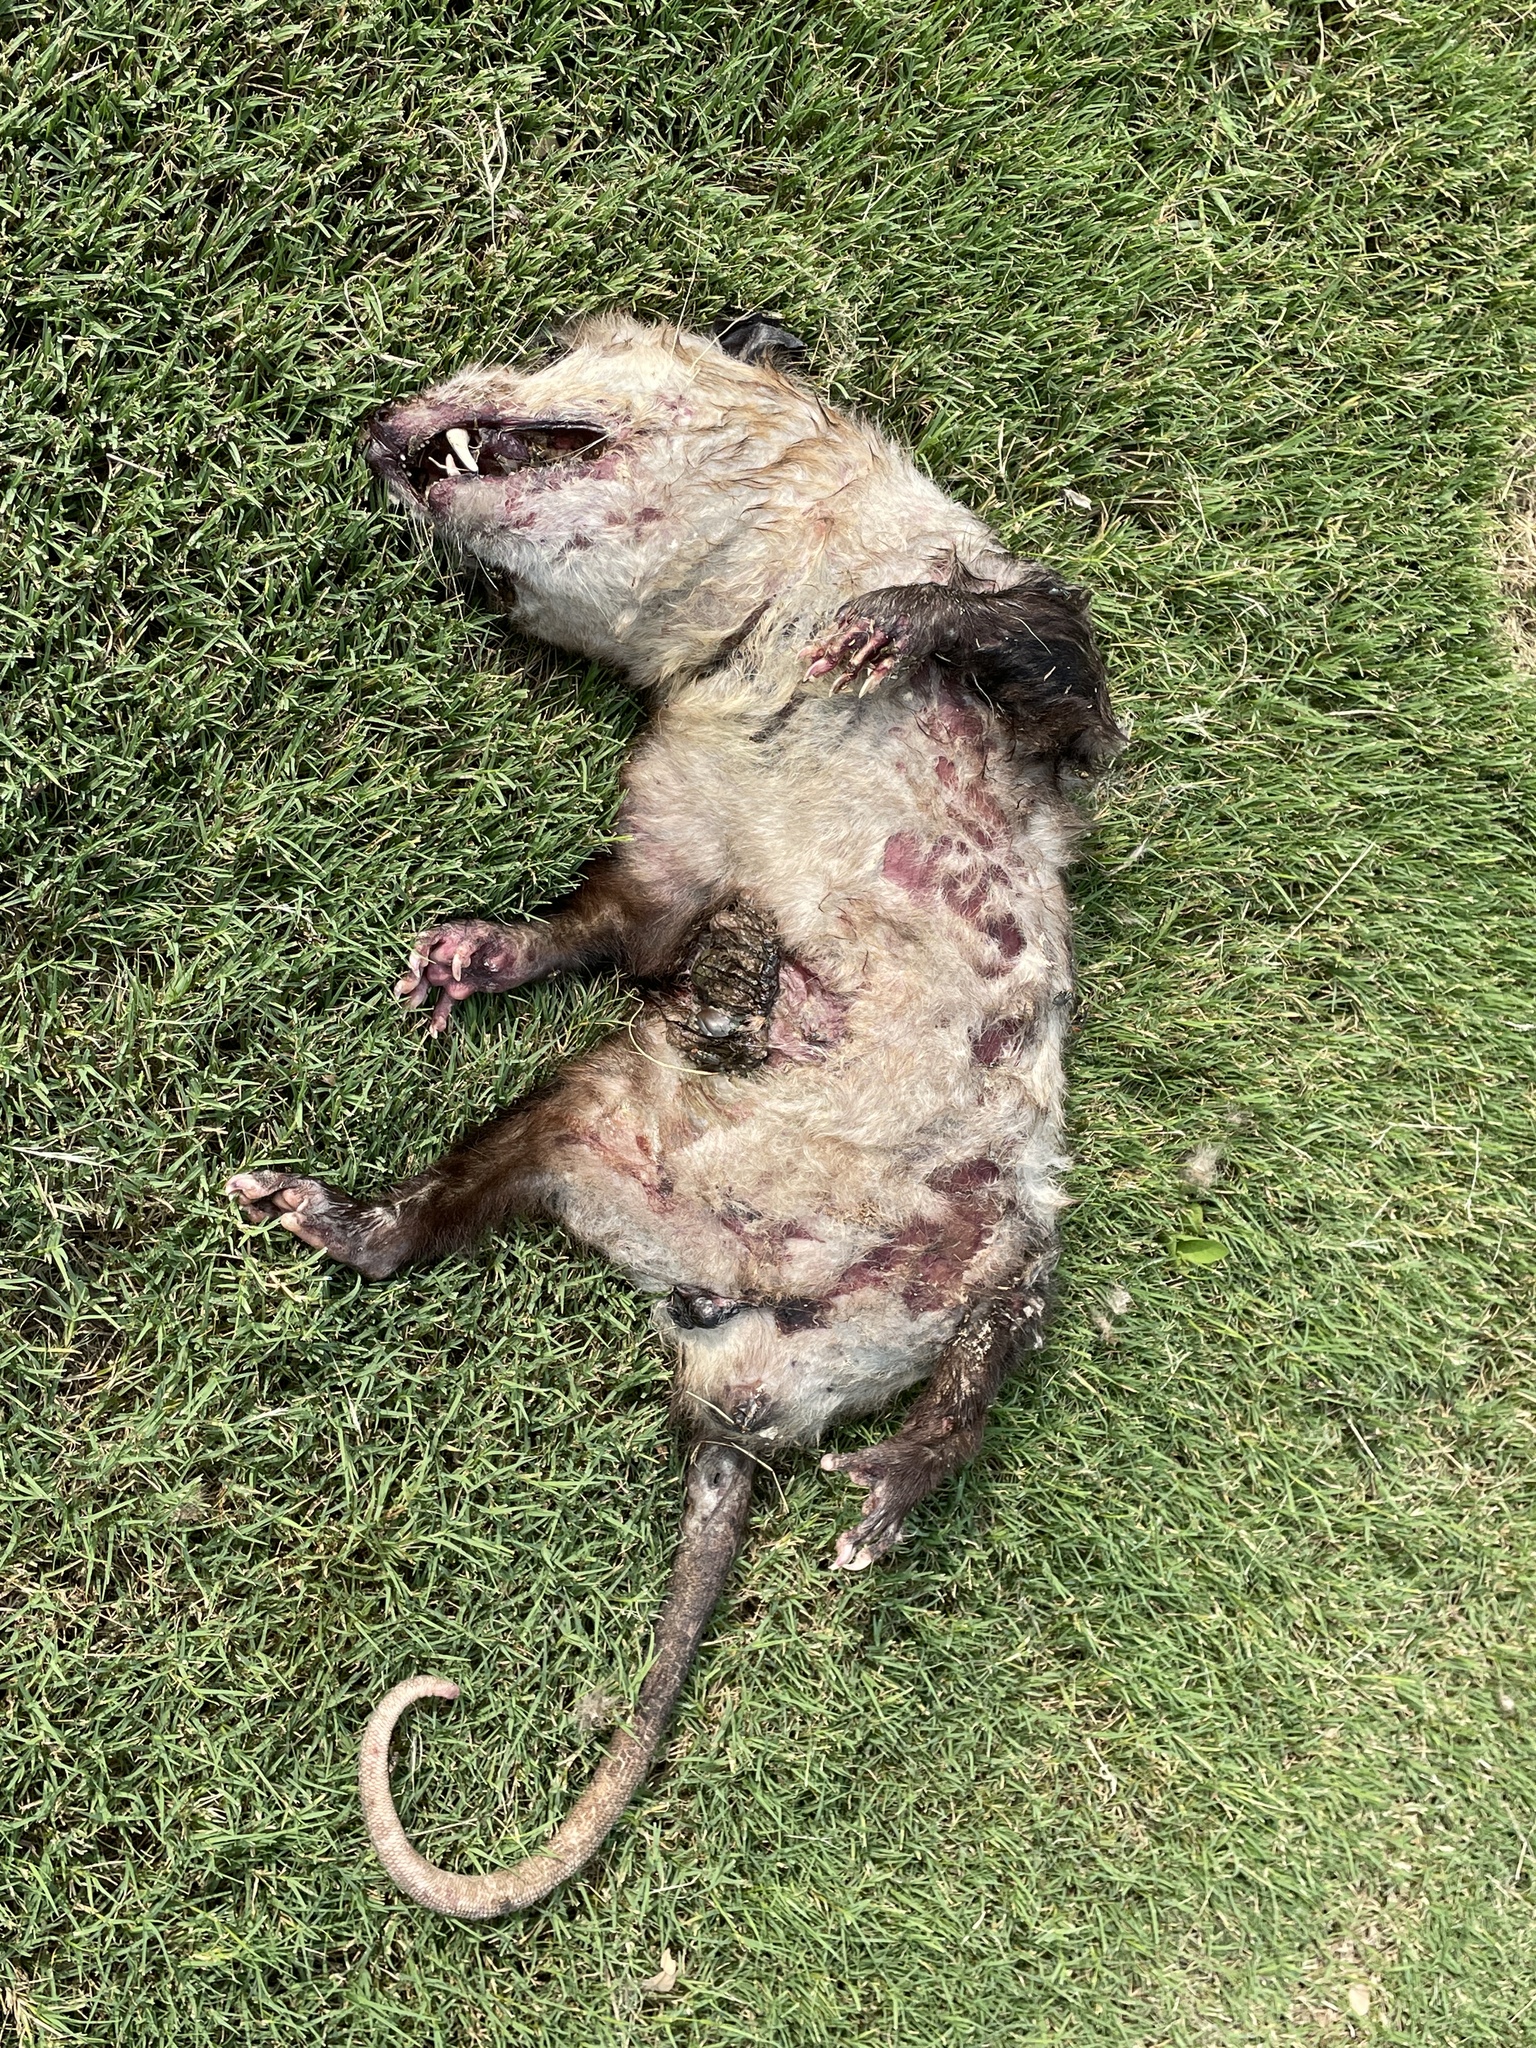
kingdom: Animalia
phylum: Chordata
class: Mammalia
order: Didelphimorphia
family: Didelphidae
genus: Didelphis
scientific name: Didelphis virginiana
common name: Virginia opossum
